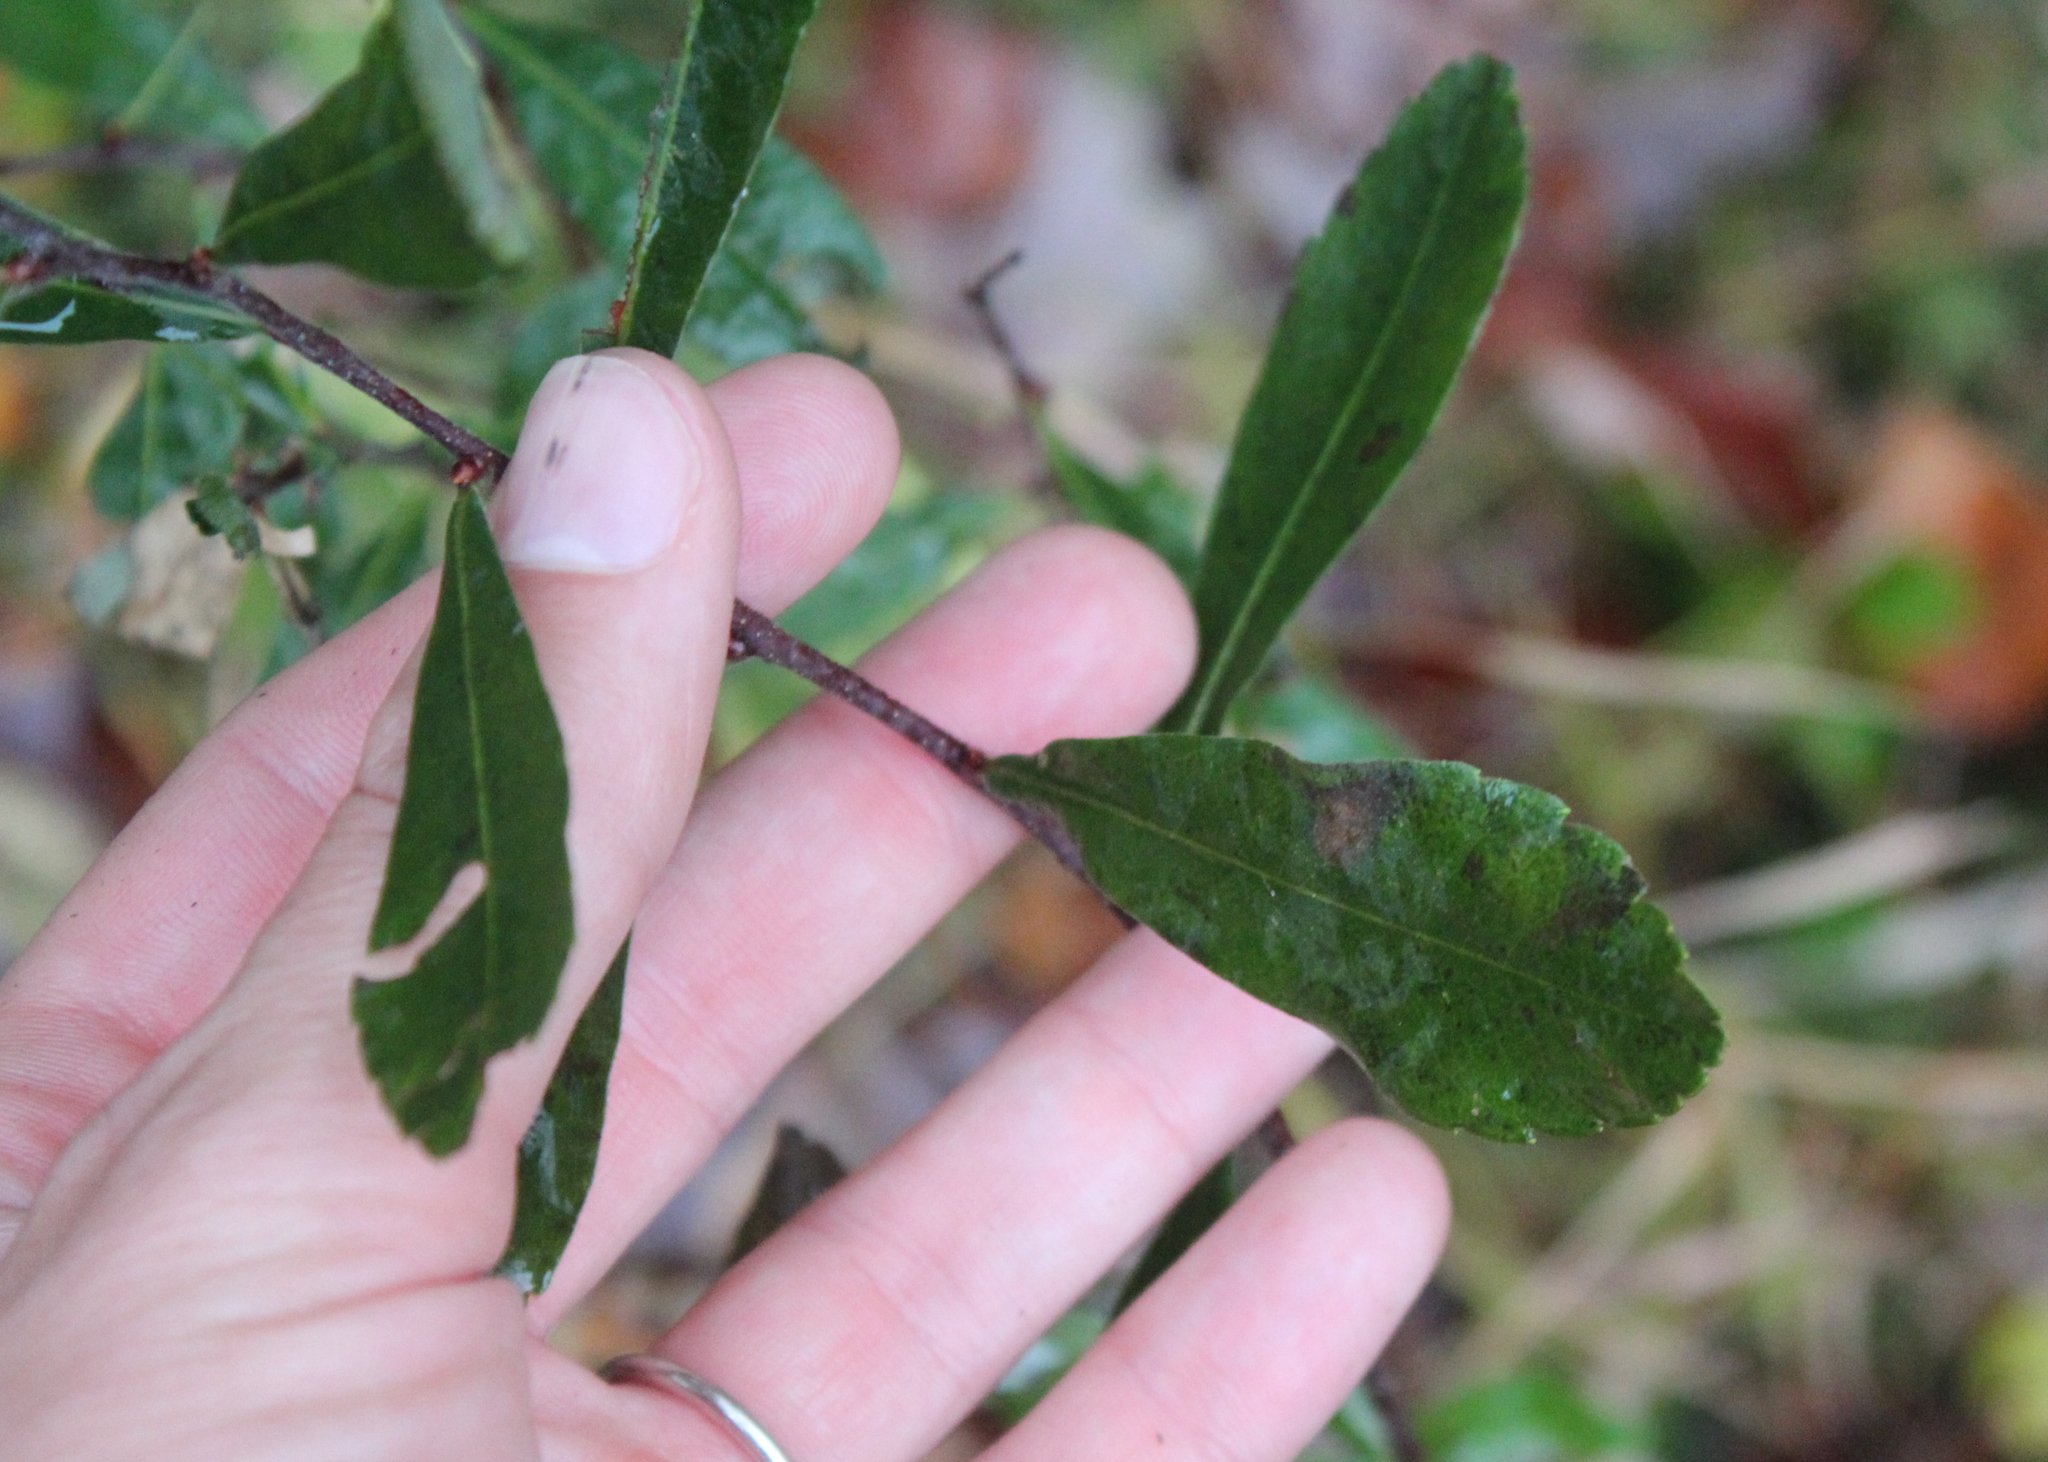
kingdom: Plantae
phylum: Tracheophyta
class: Magnoliopsida
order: Fagales
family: Myricaceae
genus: Myrica
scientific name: Myrica gale
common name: Sweet gale
